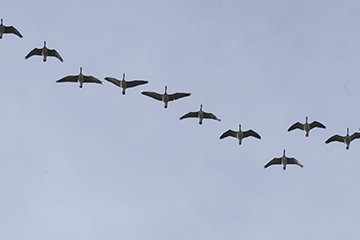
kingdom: Animalia
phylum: Chordata
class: Aves
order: Anseriformes
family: Anatidae
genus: Branta
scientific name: Branta canadensis
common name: Canada goose
